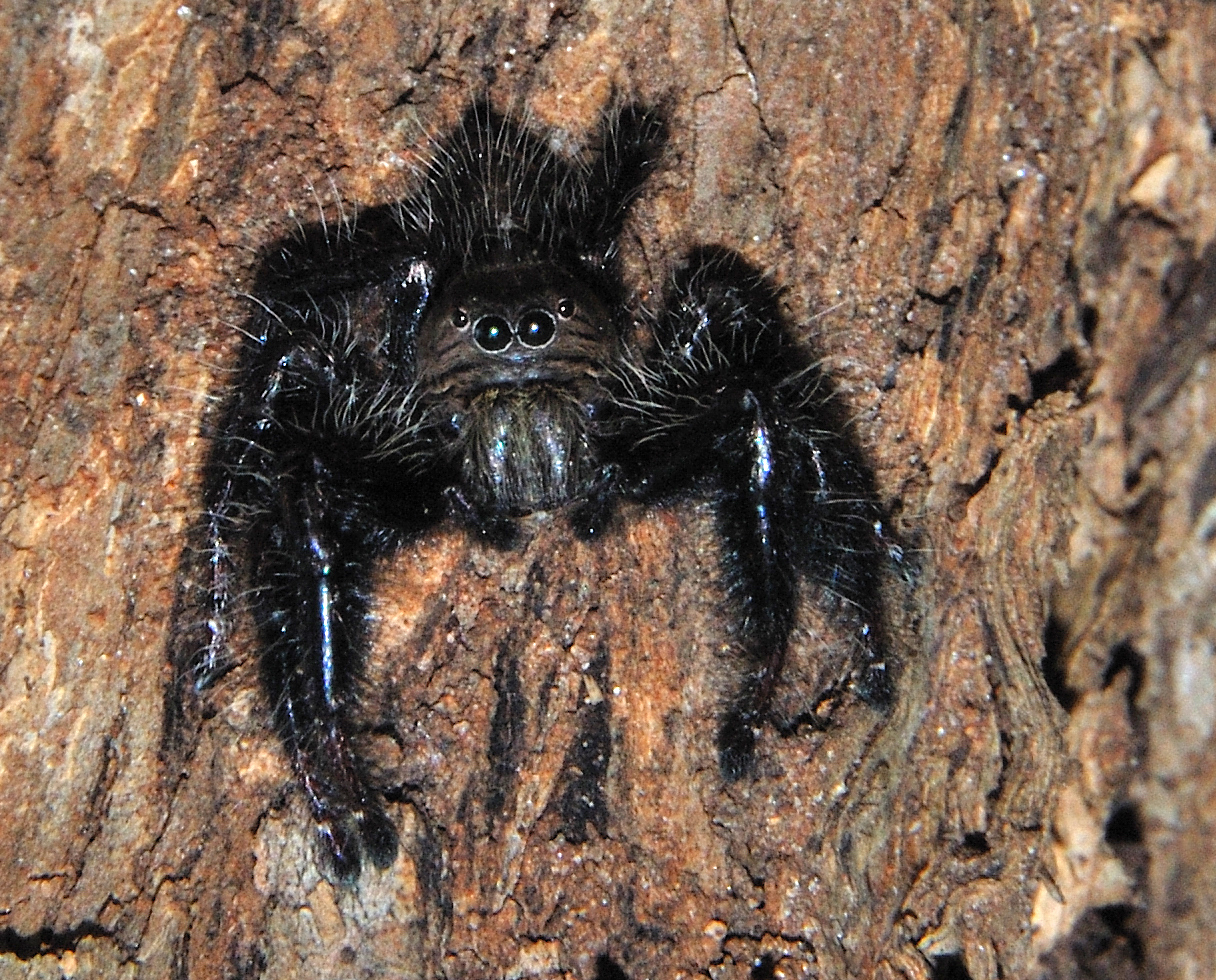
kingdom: Animalia
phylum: Arthropoda
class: Arachnida
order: Araneae
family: Salticidae
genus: Hyllus
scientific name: Hyllus treleaveni
